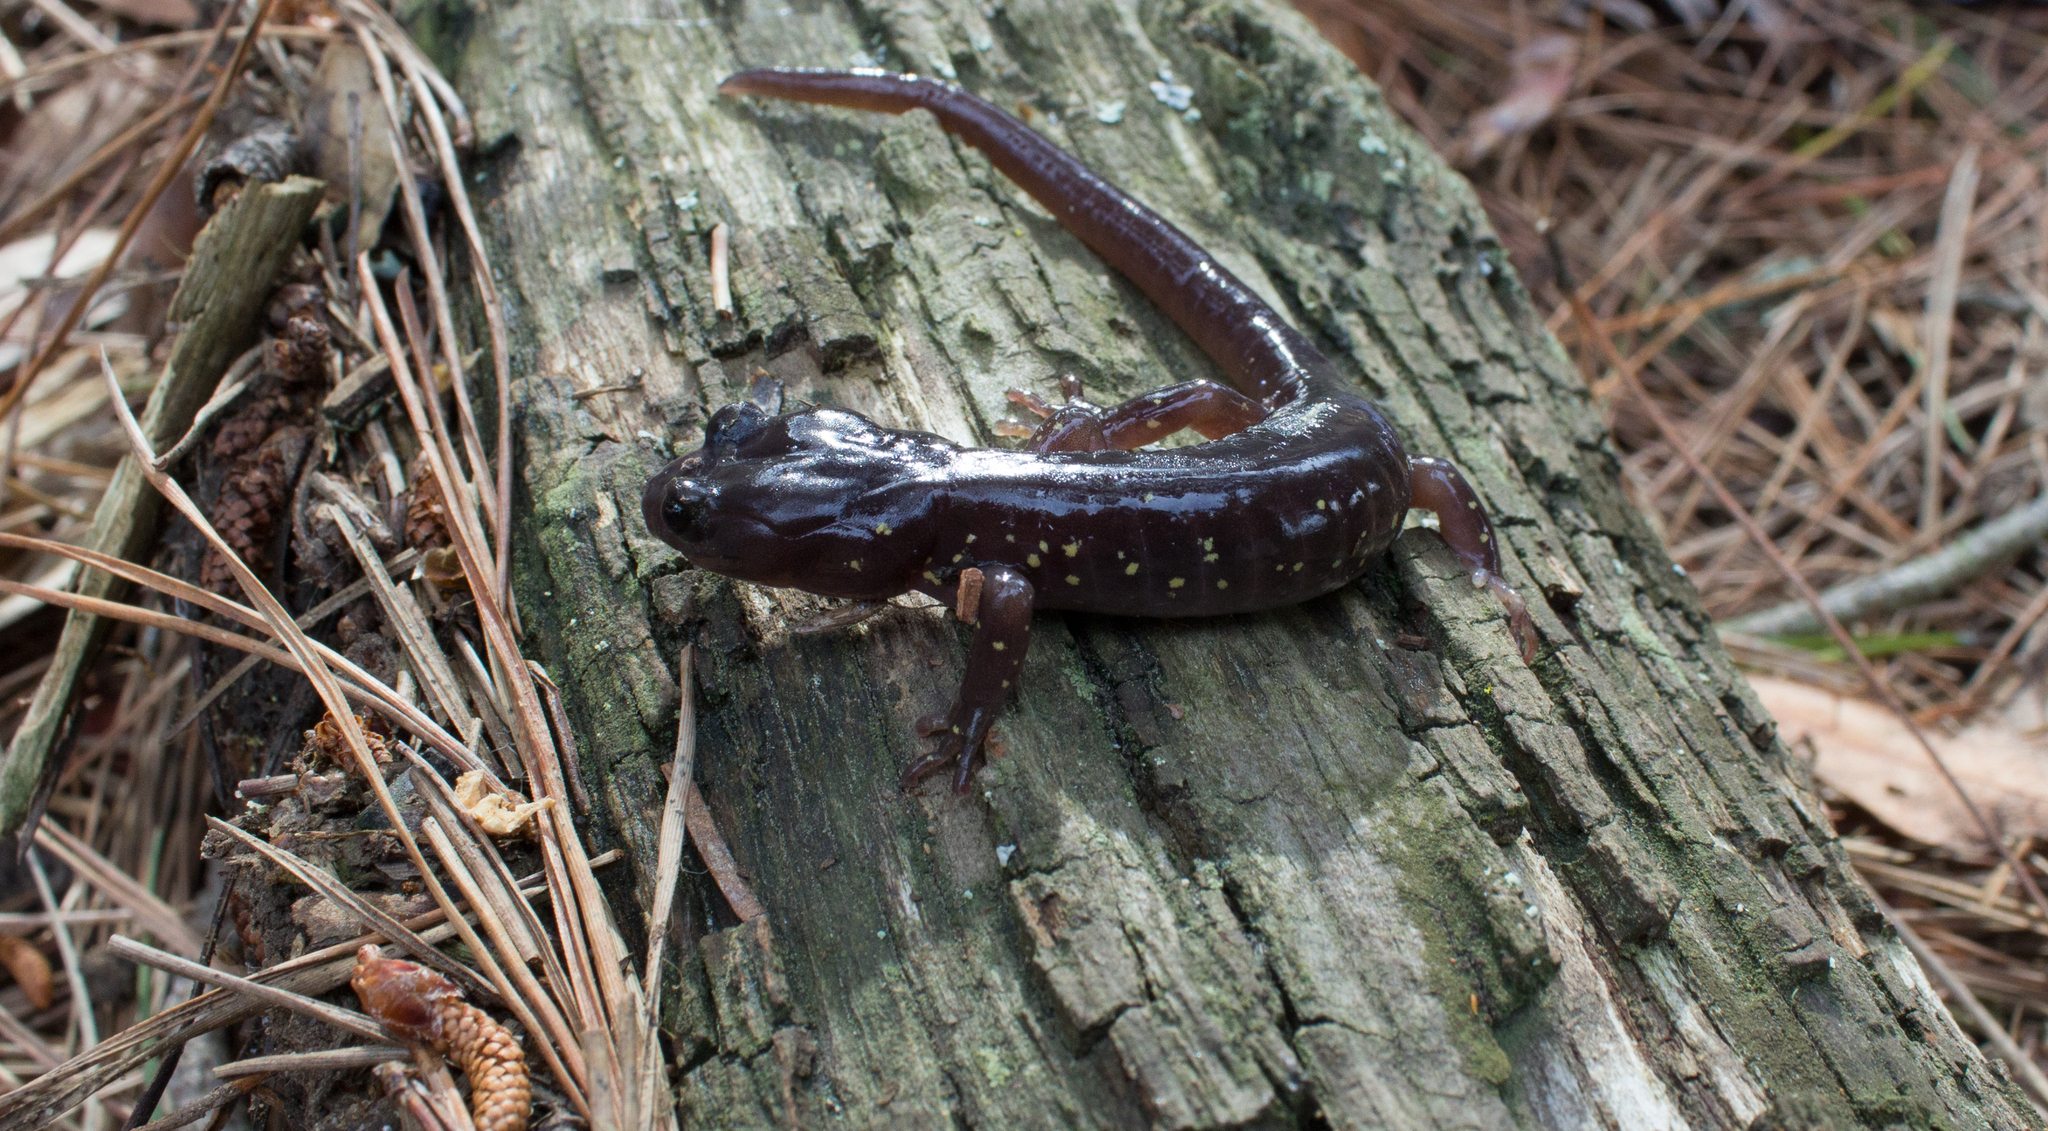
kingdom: Animalia
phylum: Chordata
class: Amphibia
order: Caudata
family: Plethodontidae
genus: Aneides
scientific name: Aneides lugubris
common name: Arboreal salamander
